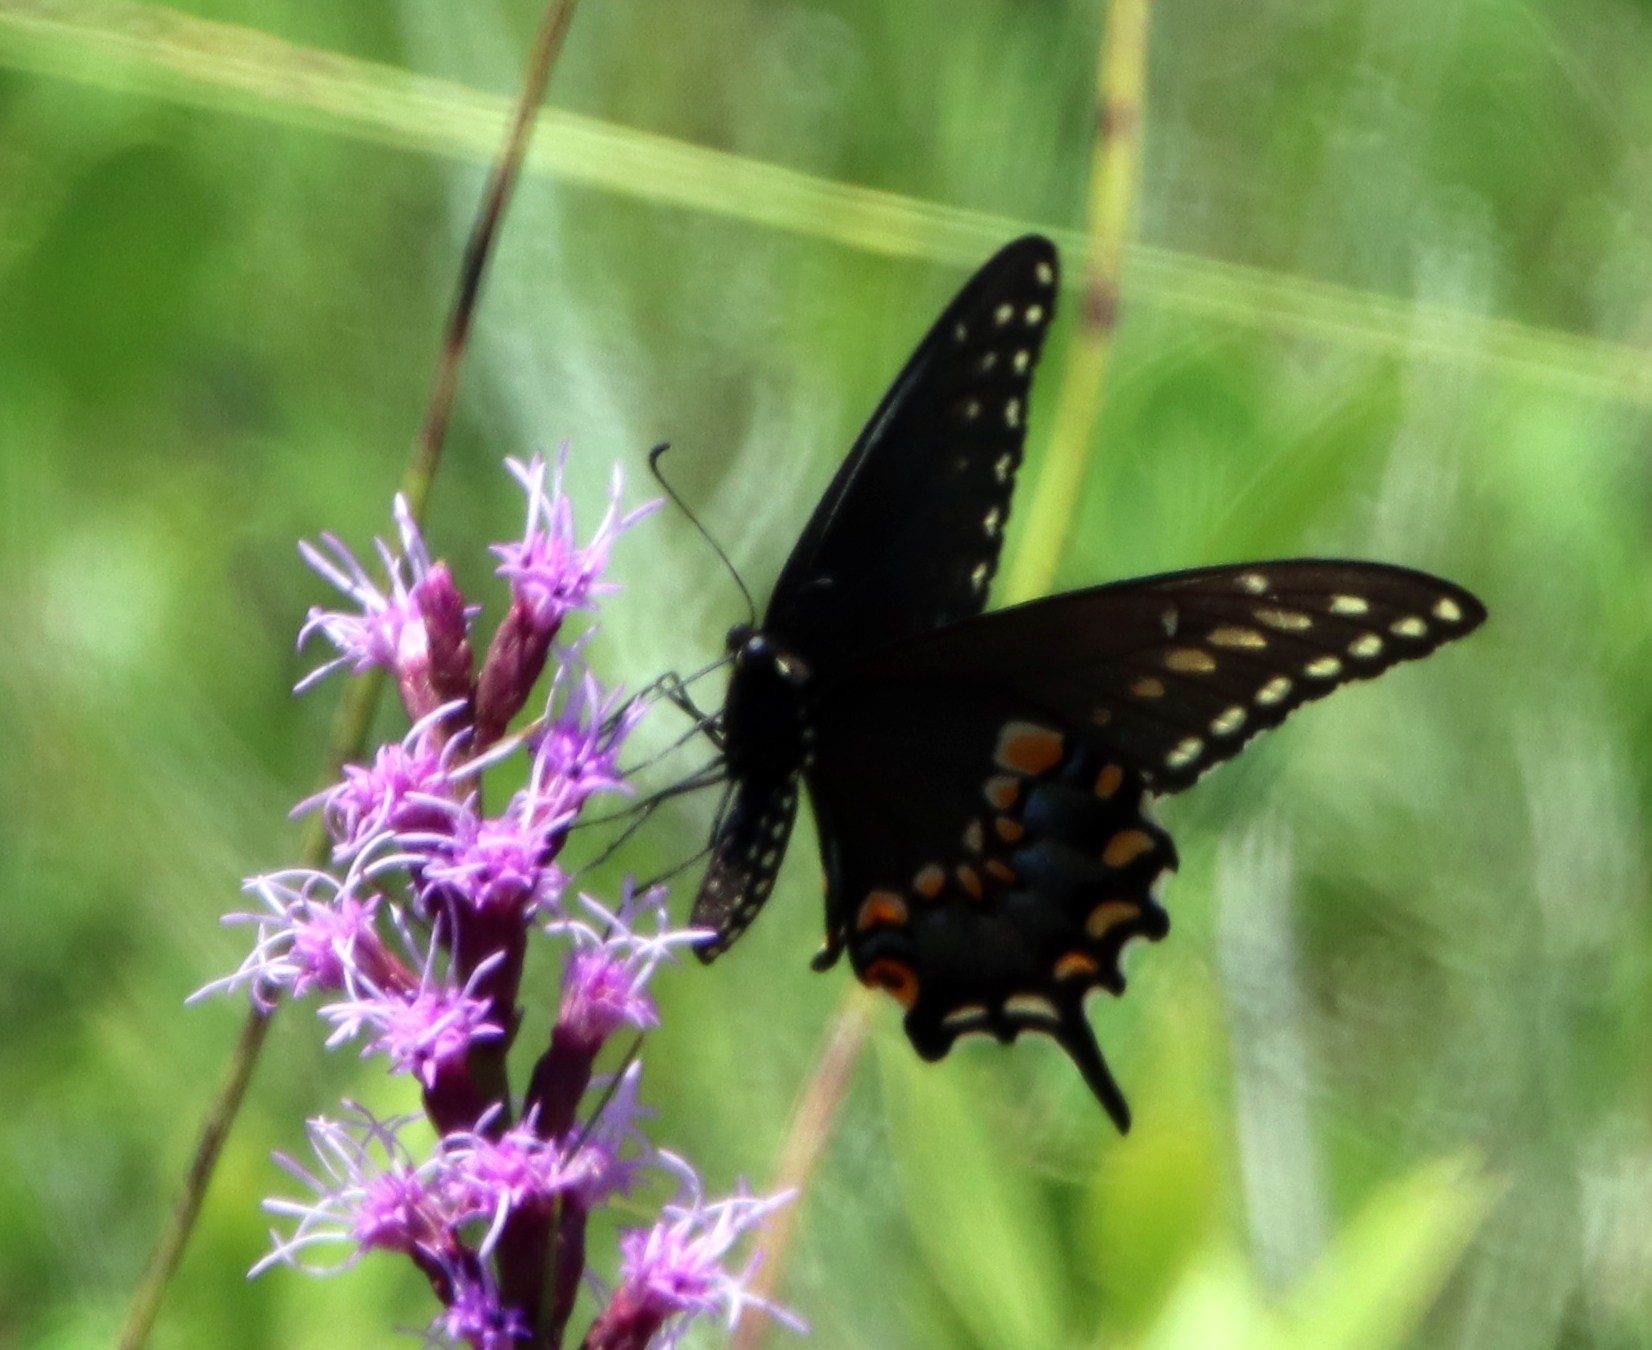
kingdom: Animalia
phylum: Arthropoda
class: Insecta
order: Lepidoptera
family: Papilionidae
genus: Papilio
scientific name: Papilio polyxenes
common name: Black swallowtail
